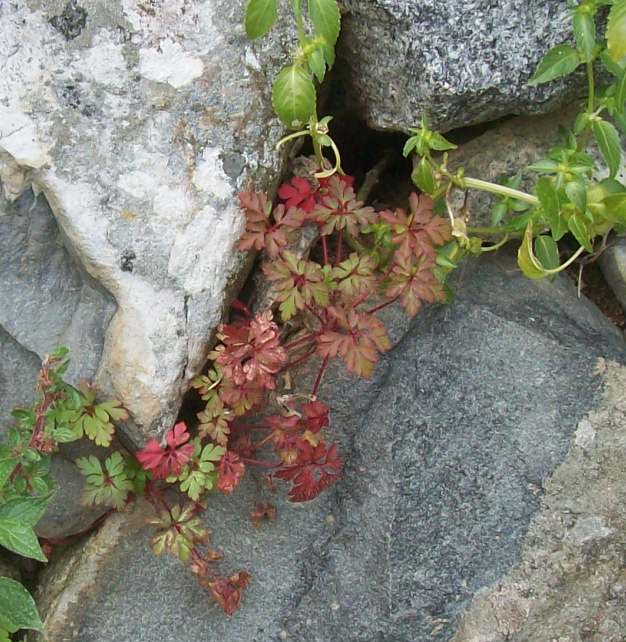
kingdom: Plantae
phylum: Tracheophyta
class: Magnoliopsida
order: Geraniales
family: Geraniaceae
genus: Geranium
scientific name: Geranium robertianum
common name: Herb-robert
